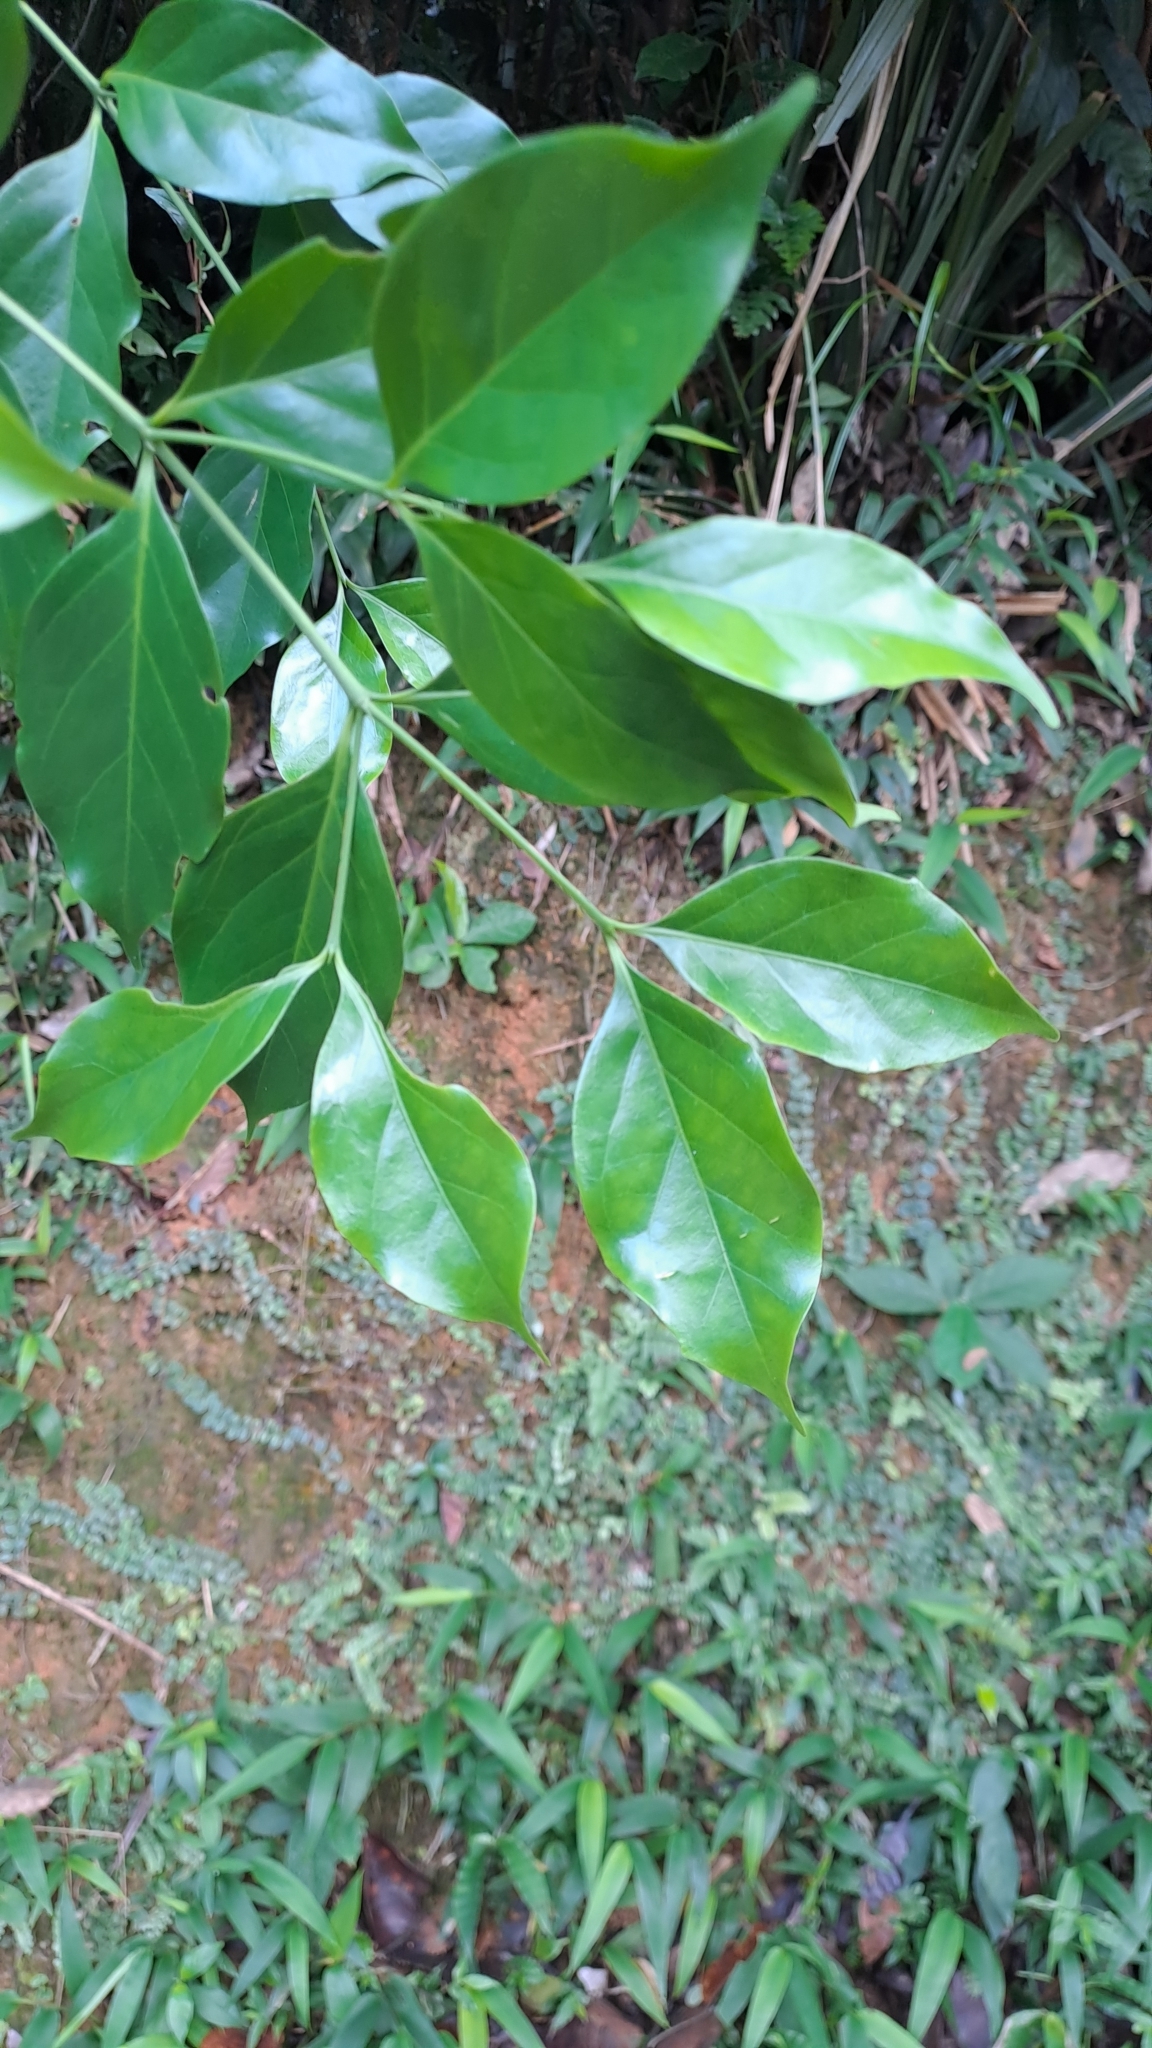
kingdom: Plantae
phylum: Tracheophyta
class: Magnoliopsida
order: Gentianales
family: Rubiaceae
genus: Psydrax
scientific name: Psydrax dicoccos
